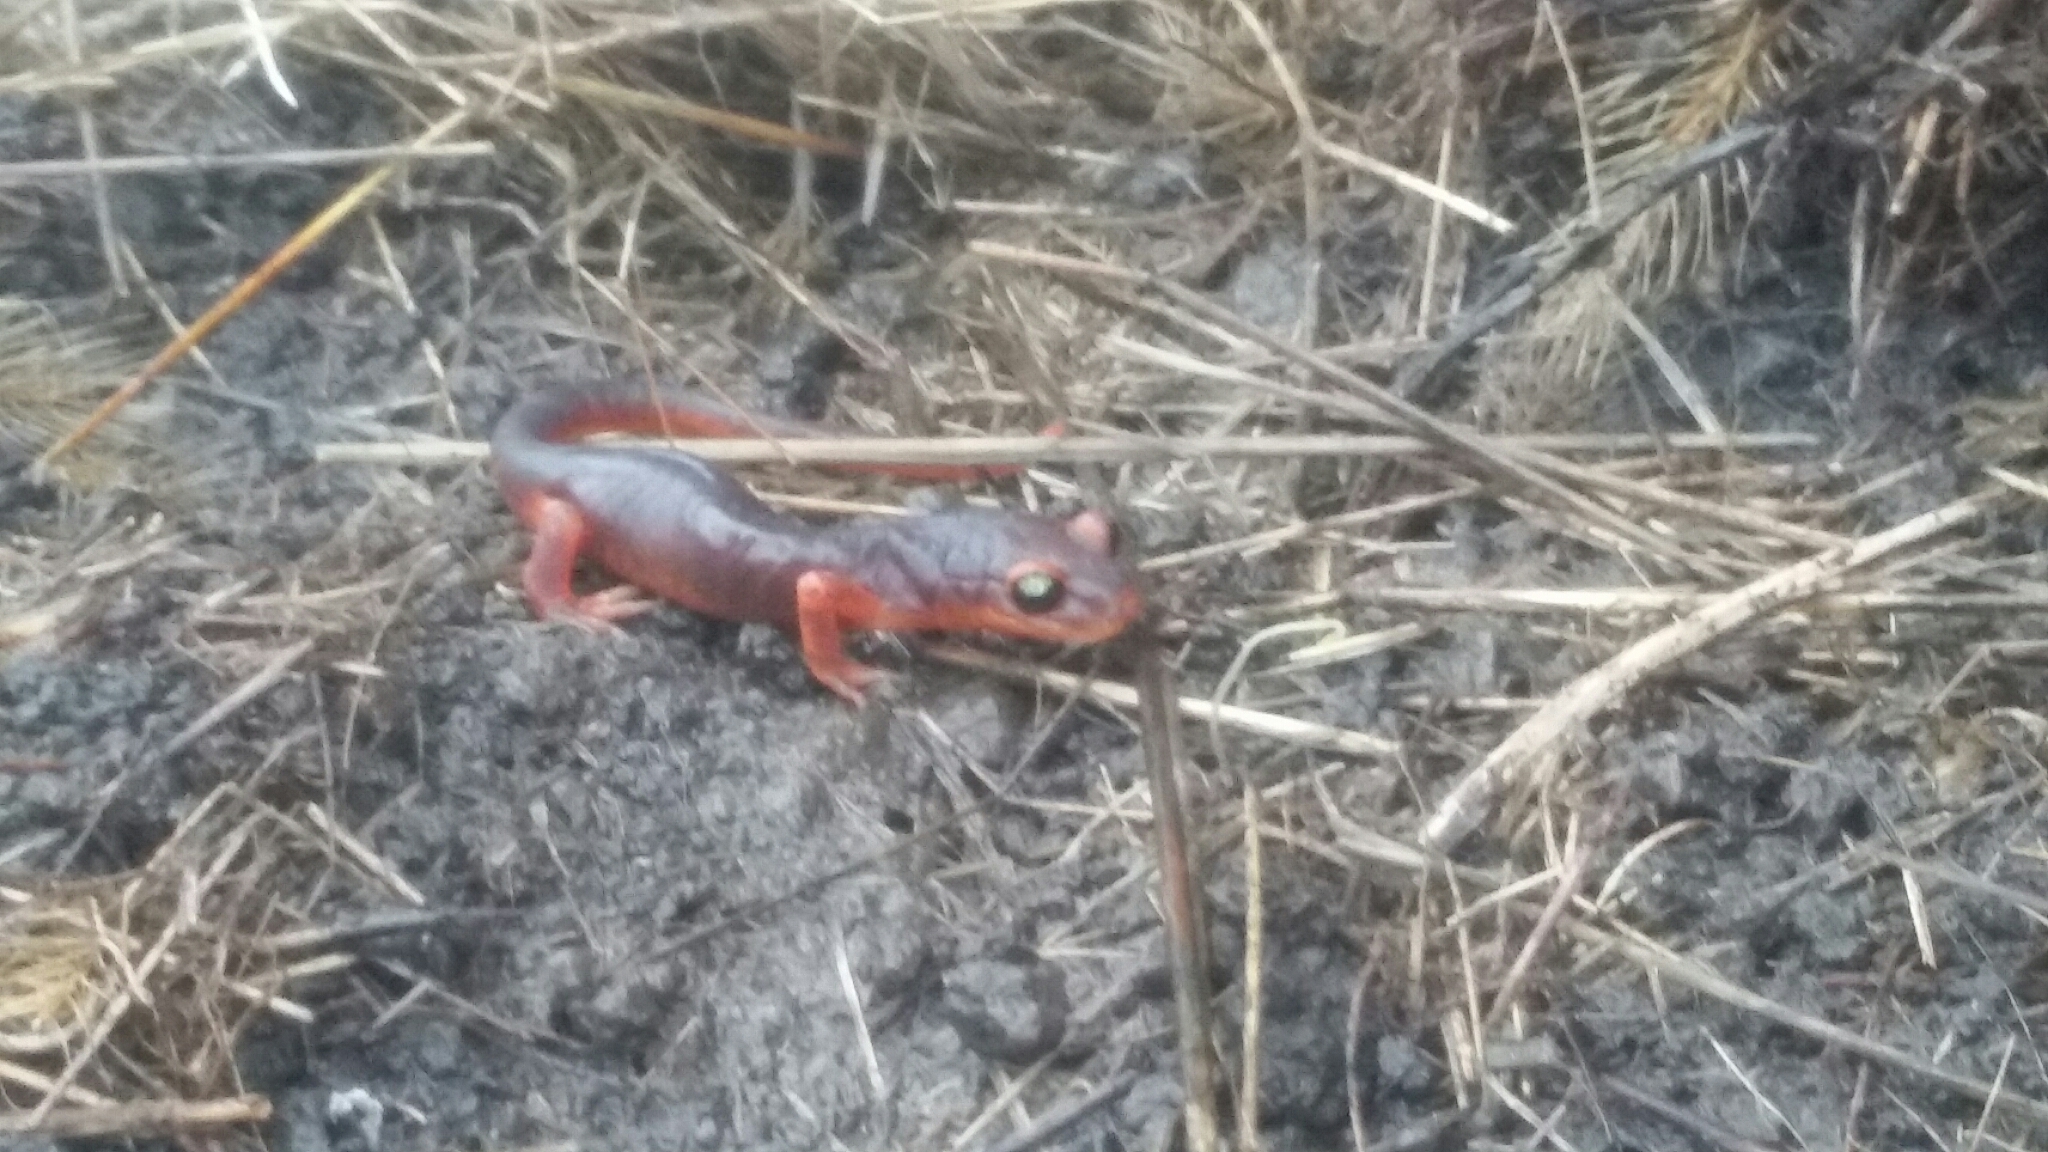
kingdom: Animalia
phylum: Chordata
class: Amphibia
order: Caudata
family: Plethodontidae
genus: Ensatina
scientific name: Ensatina eschscholtzii
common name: Ensatina
